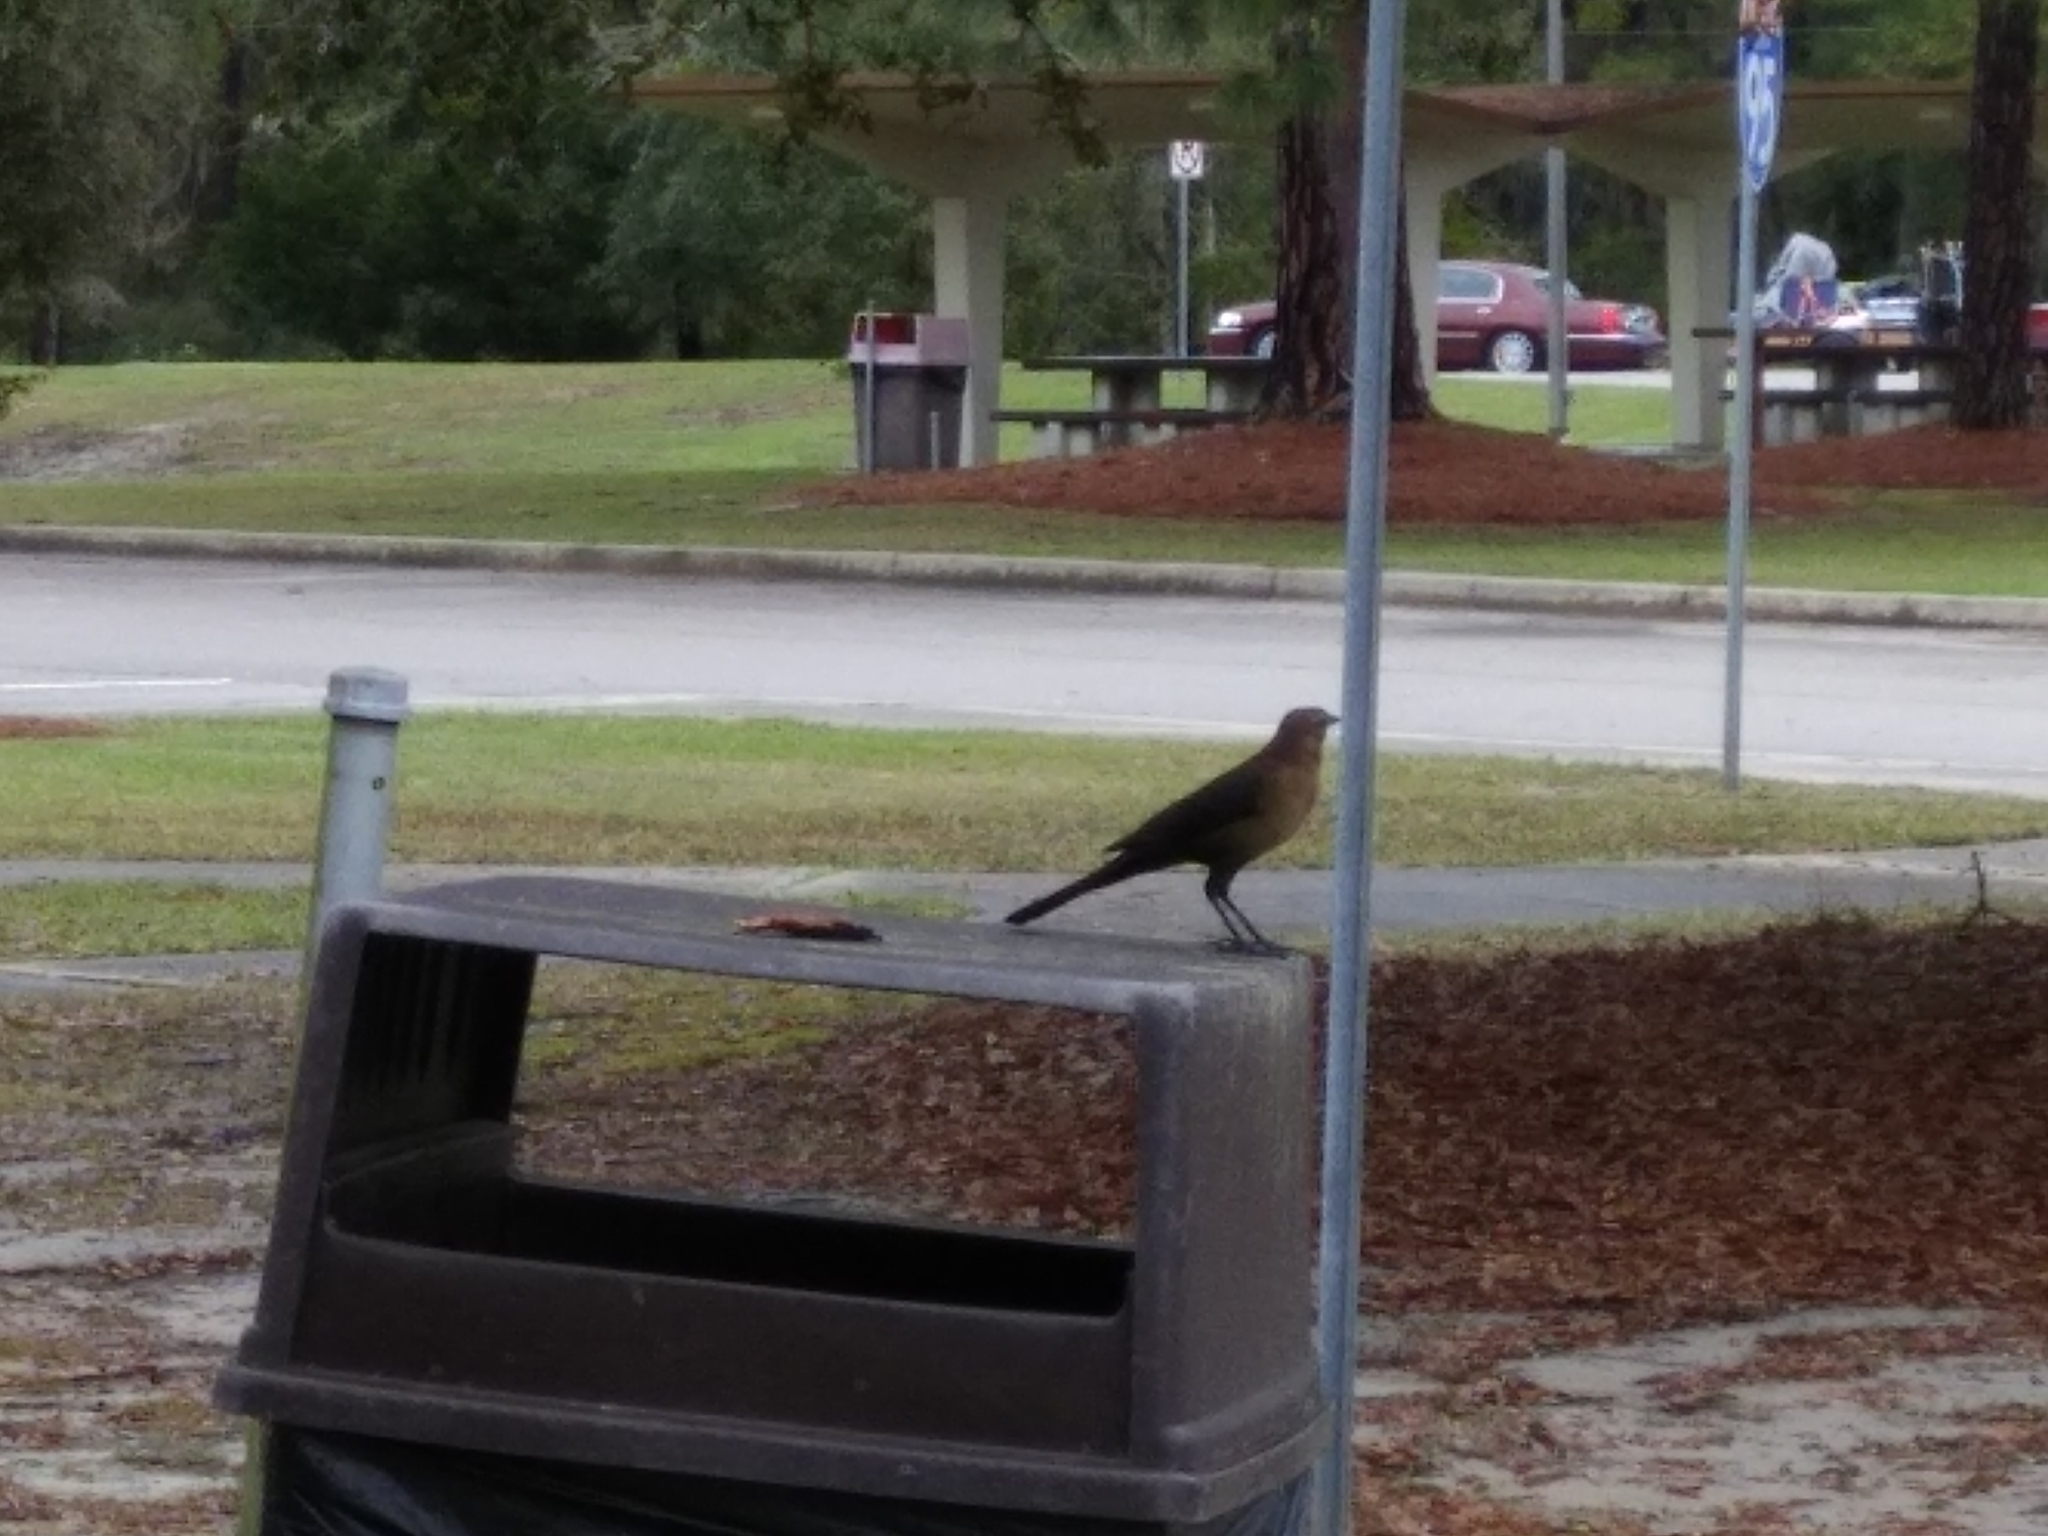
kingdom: Animalia
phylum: Chordata
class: Aves
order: Passeriformes
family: Icteridae
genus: Quiscalus
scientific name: Quiscalus major
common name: Boat-tailed grackle
